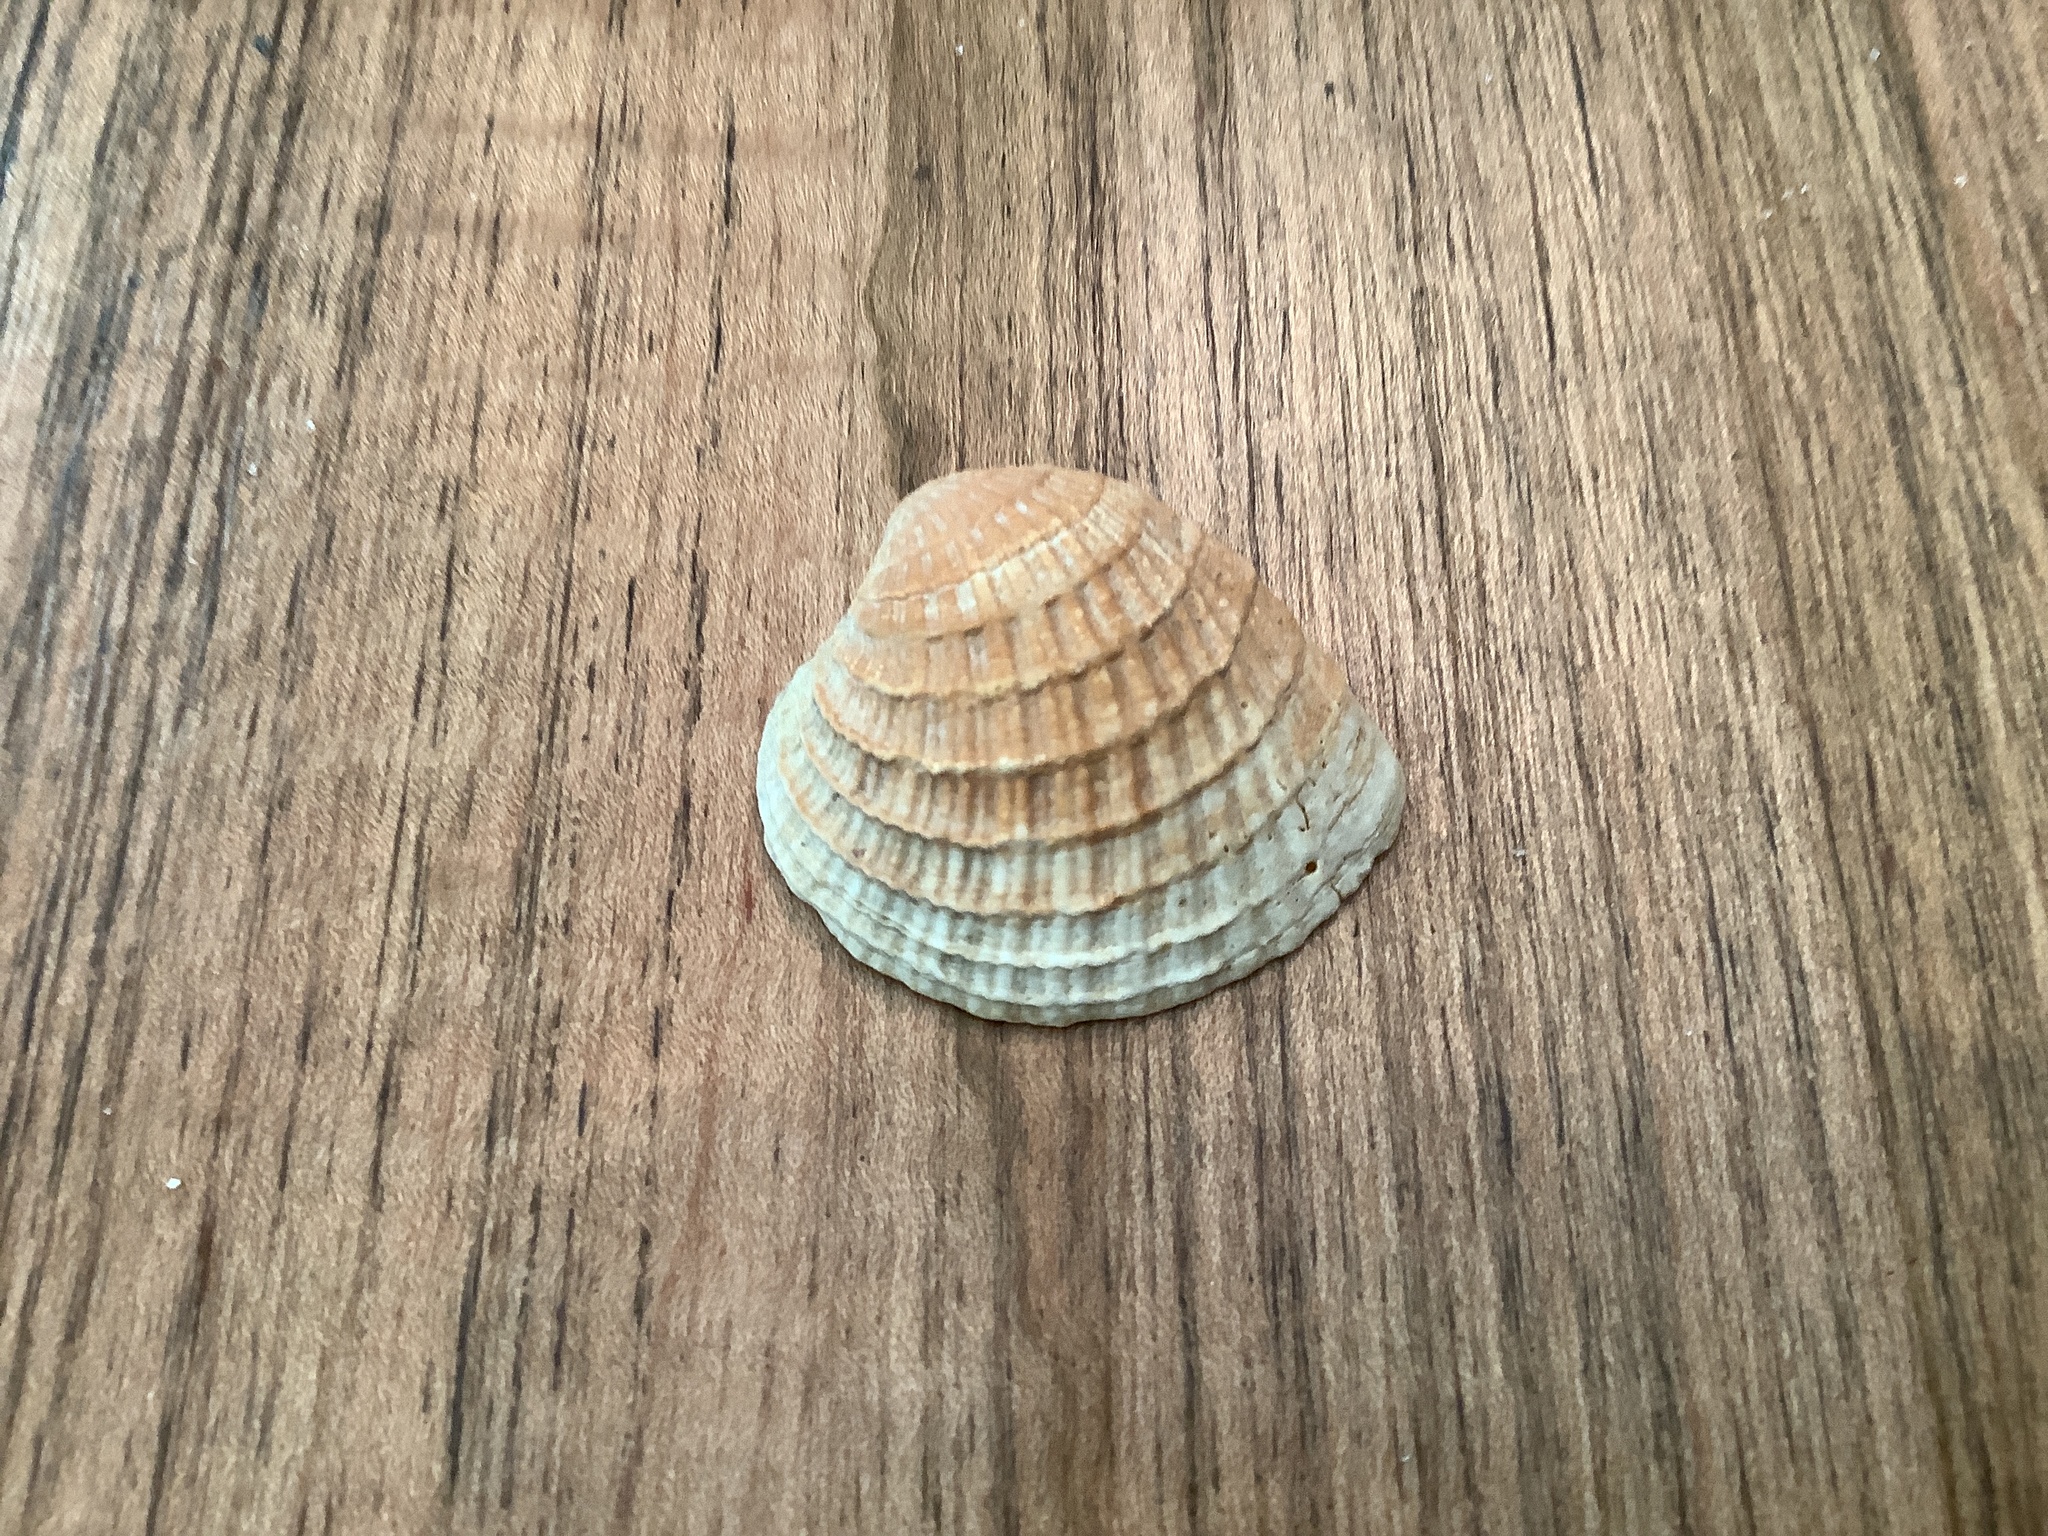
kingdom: Animalia
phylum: Mollusca
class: Bivalvia
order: Venerida
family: Veneridae
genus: Chione
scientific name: Chione elevata
